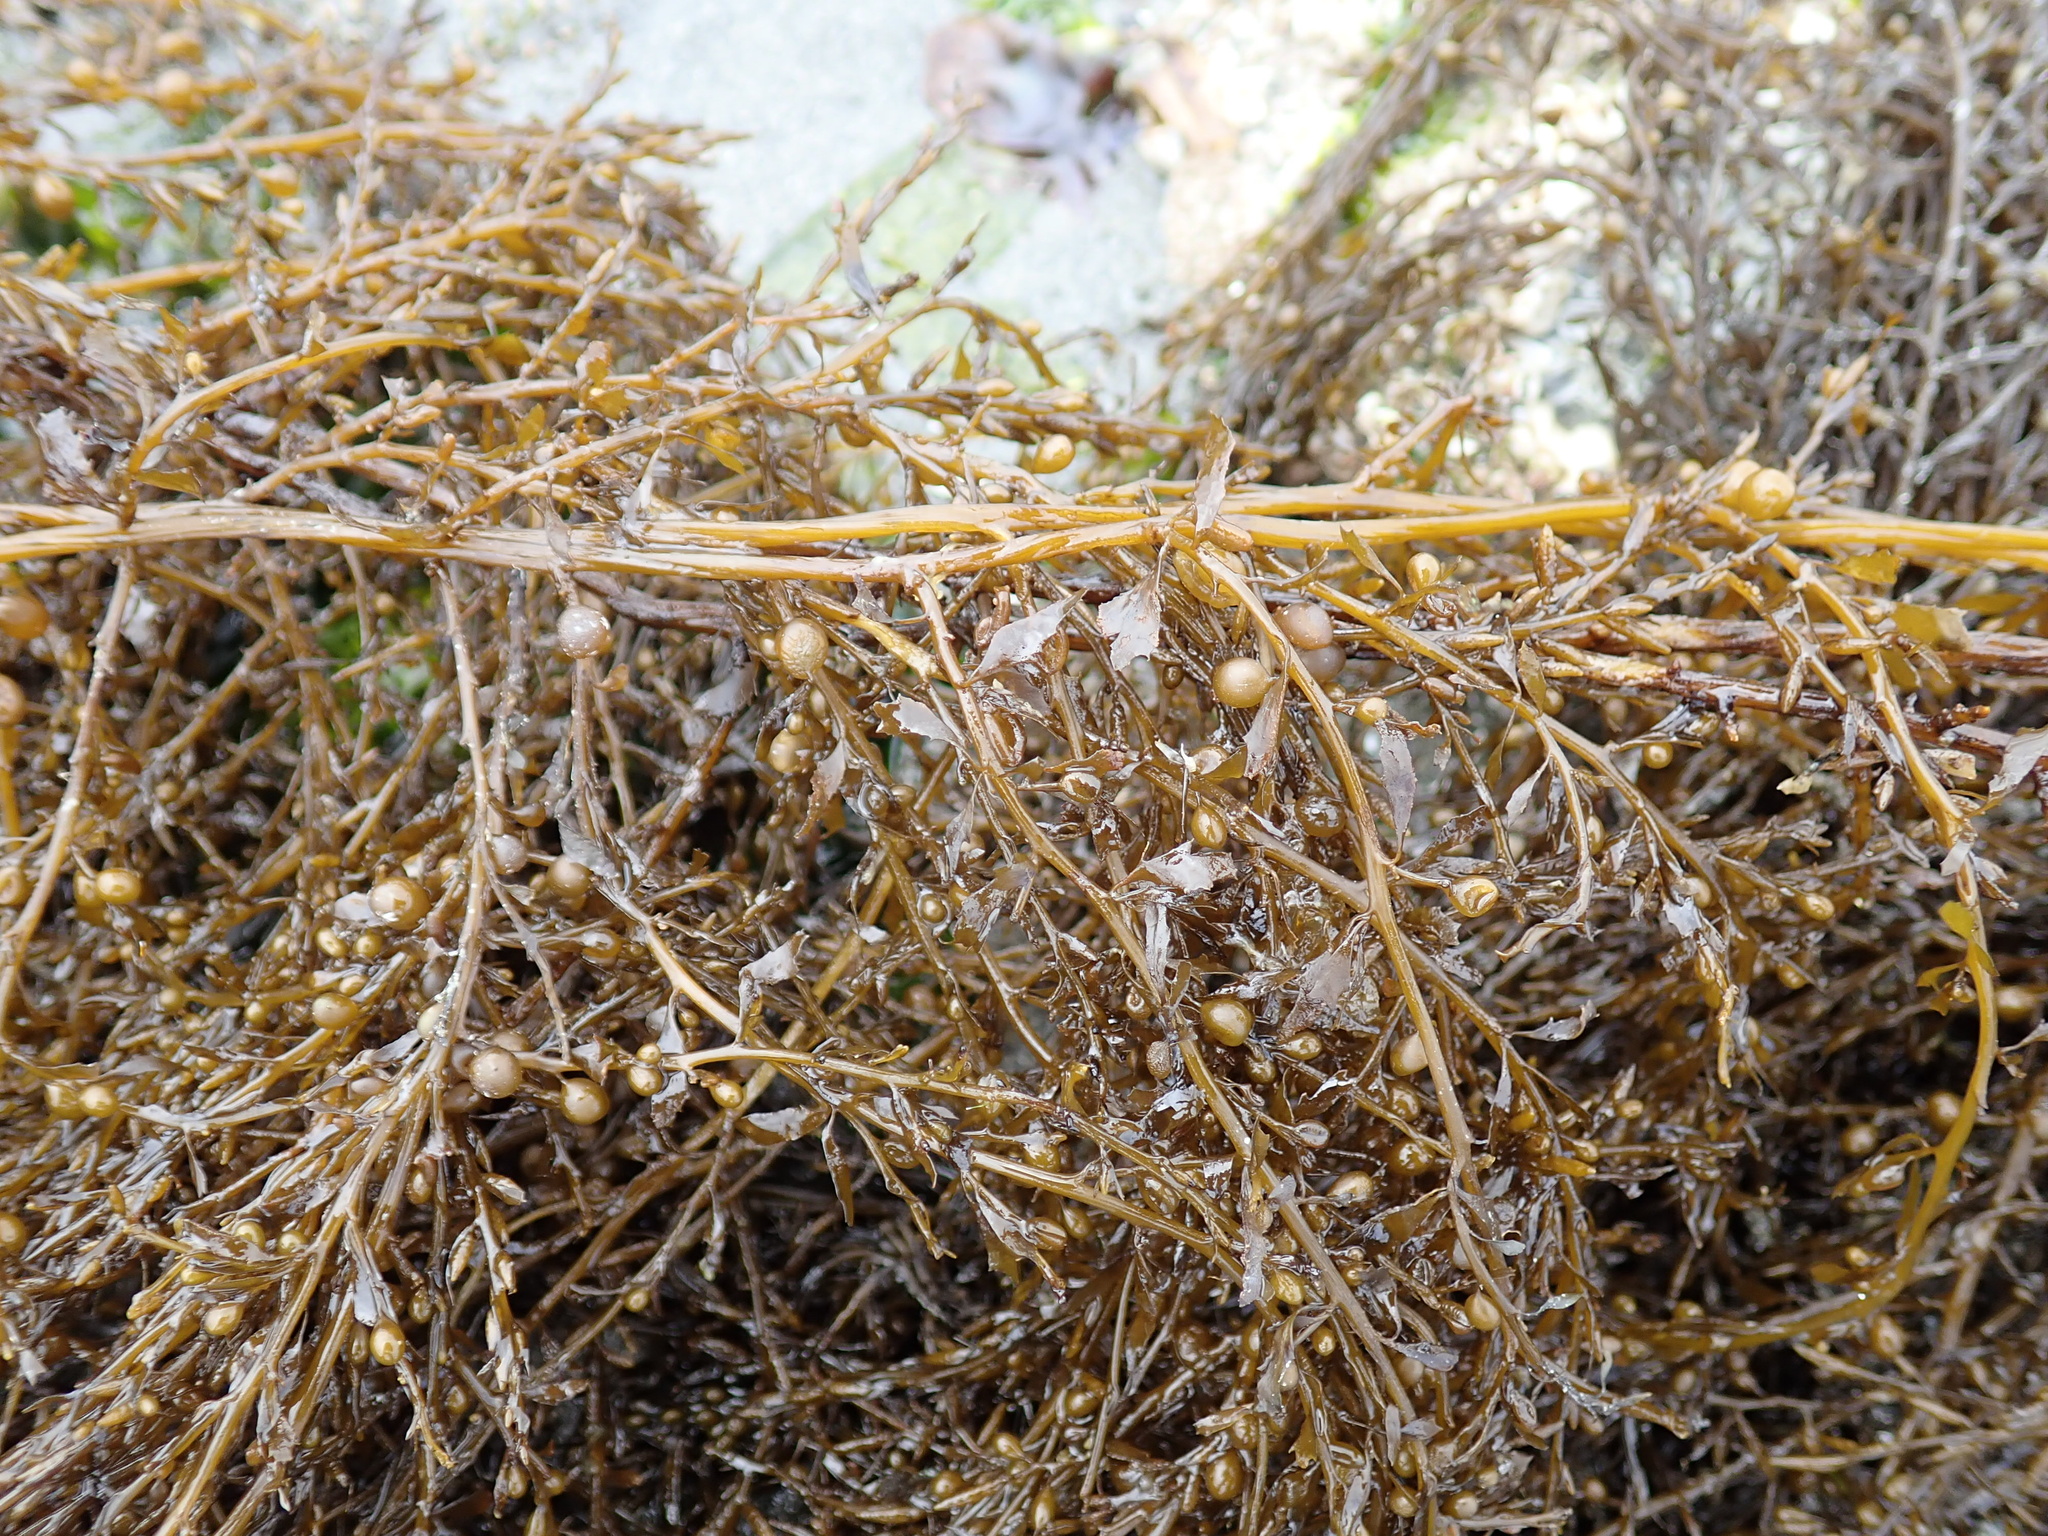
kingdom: Chromista
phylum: Ochrophyta
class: Phaeophyceae
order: Fucales
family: Sargassaceae
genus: Sargassum
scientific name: Sargassum muticum
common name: Japweed
